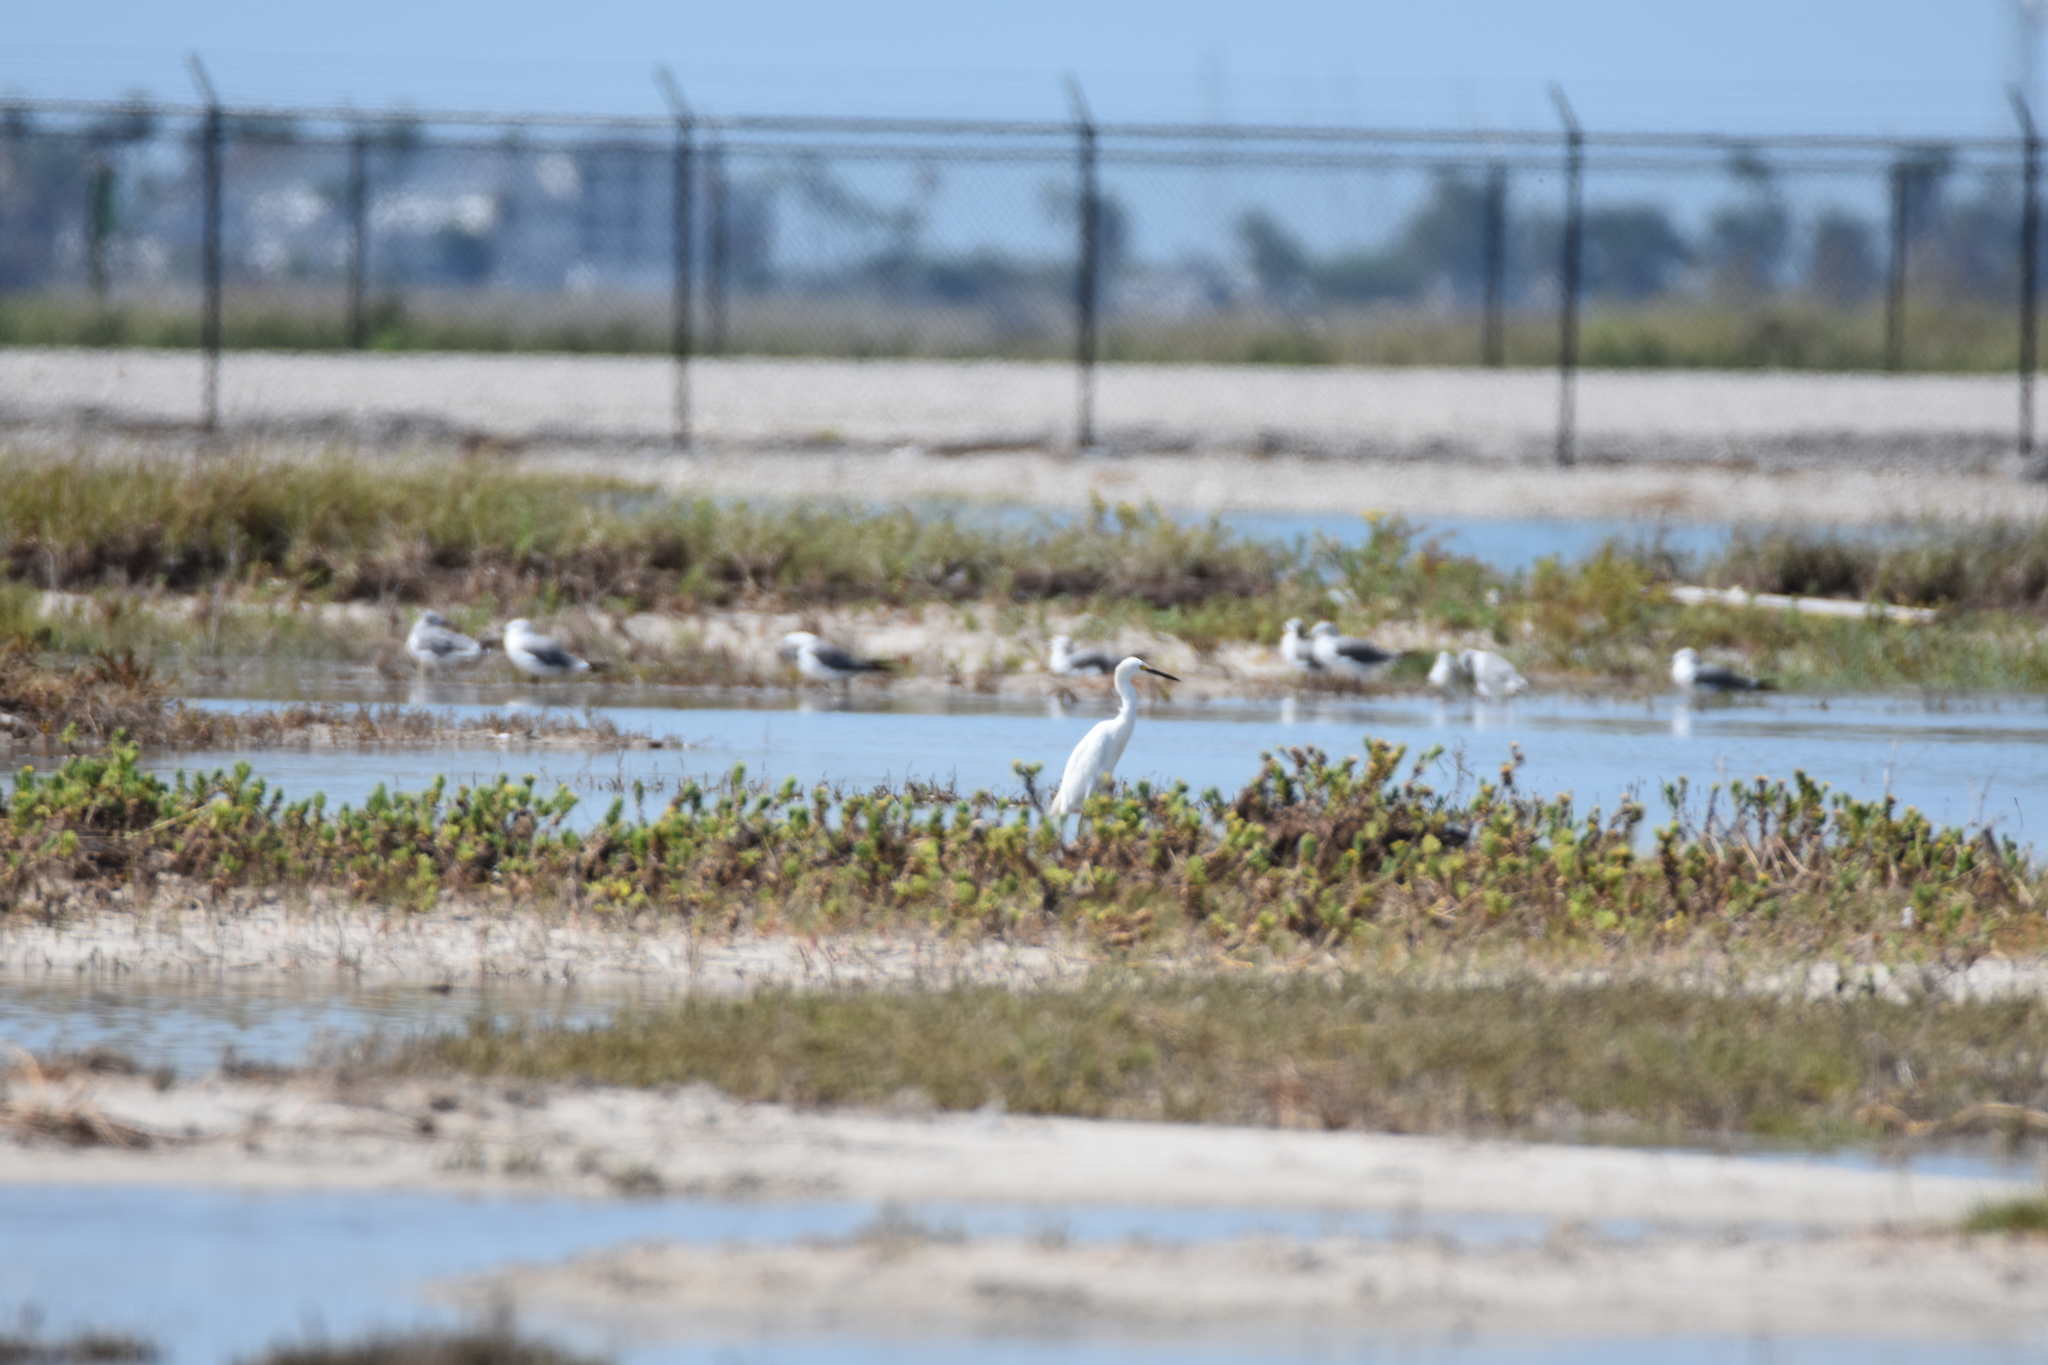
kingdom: Animalia
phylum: Chordata
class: Aves
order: Pelecaniformes
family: Ardeidae
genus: Egretta
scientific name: Egretta thula
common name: Snowy egret
